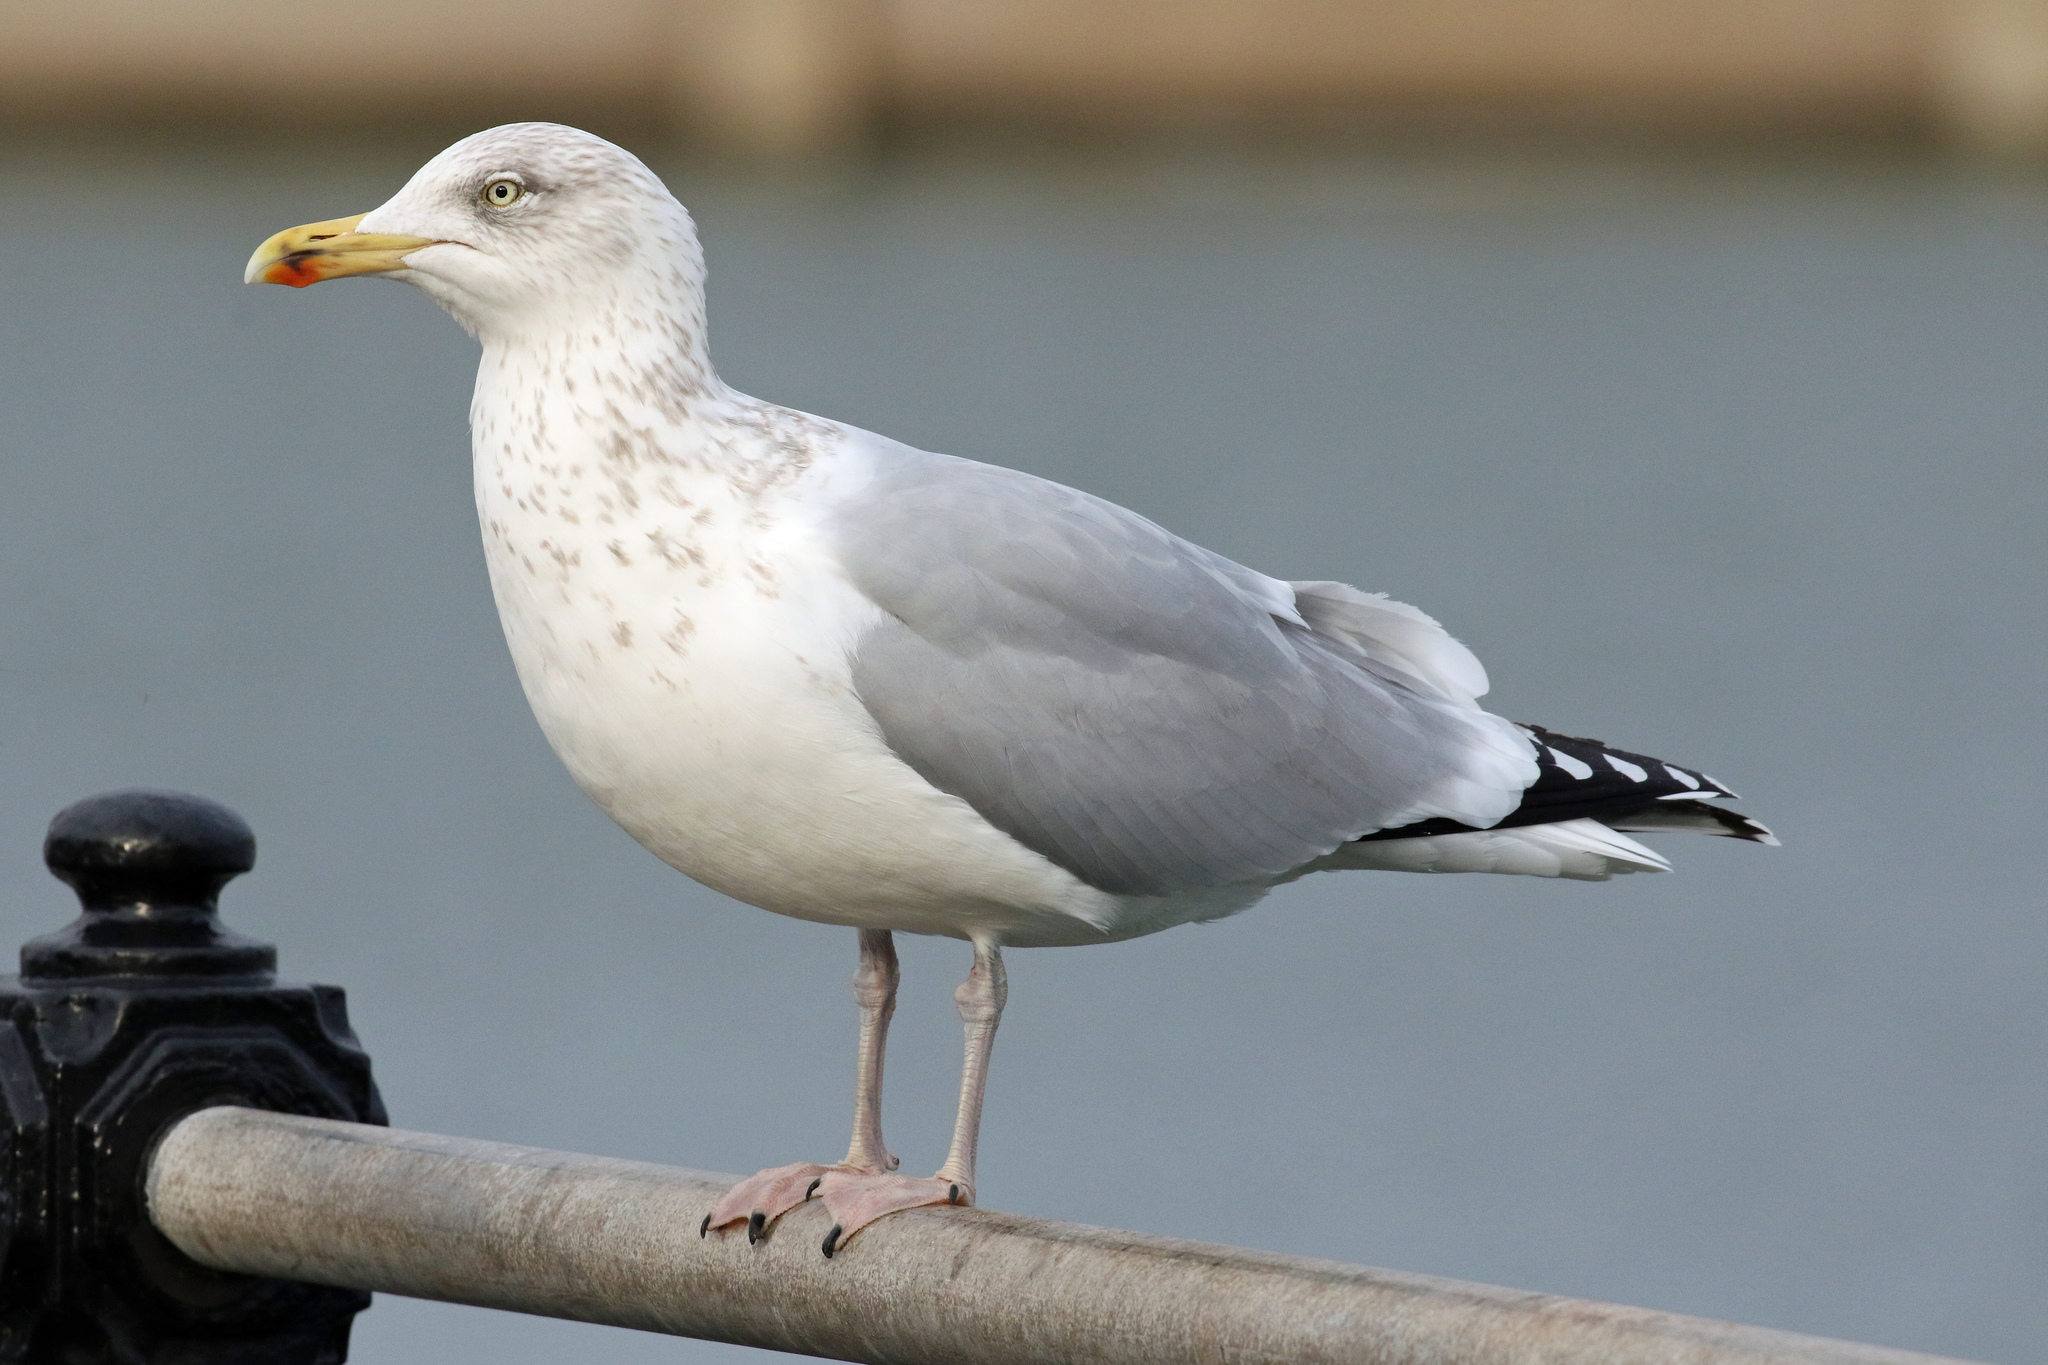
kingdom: Animalia
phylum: Chordata
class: Aves
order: Charadriiformes
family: Laridae
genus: Larus
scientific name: Larus argentatus
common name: Herring gull
